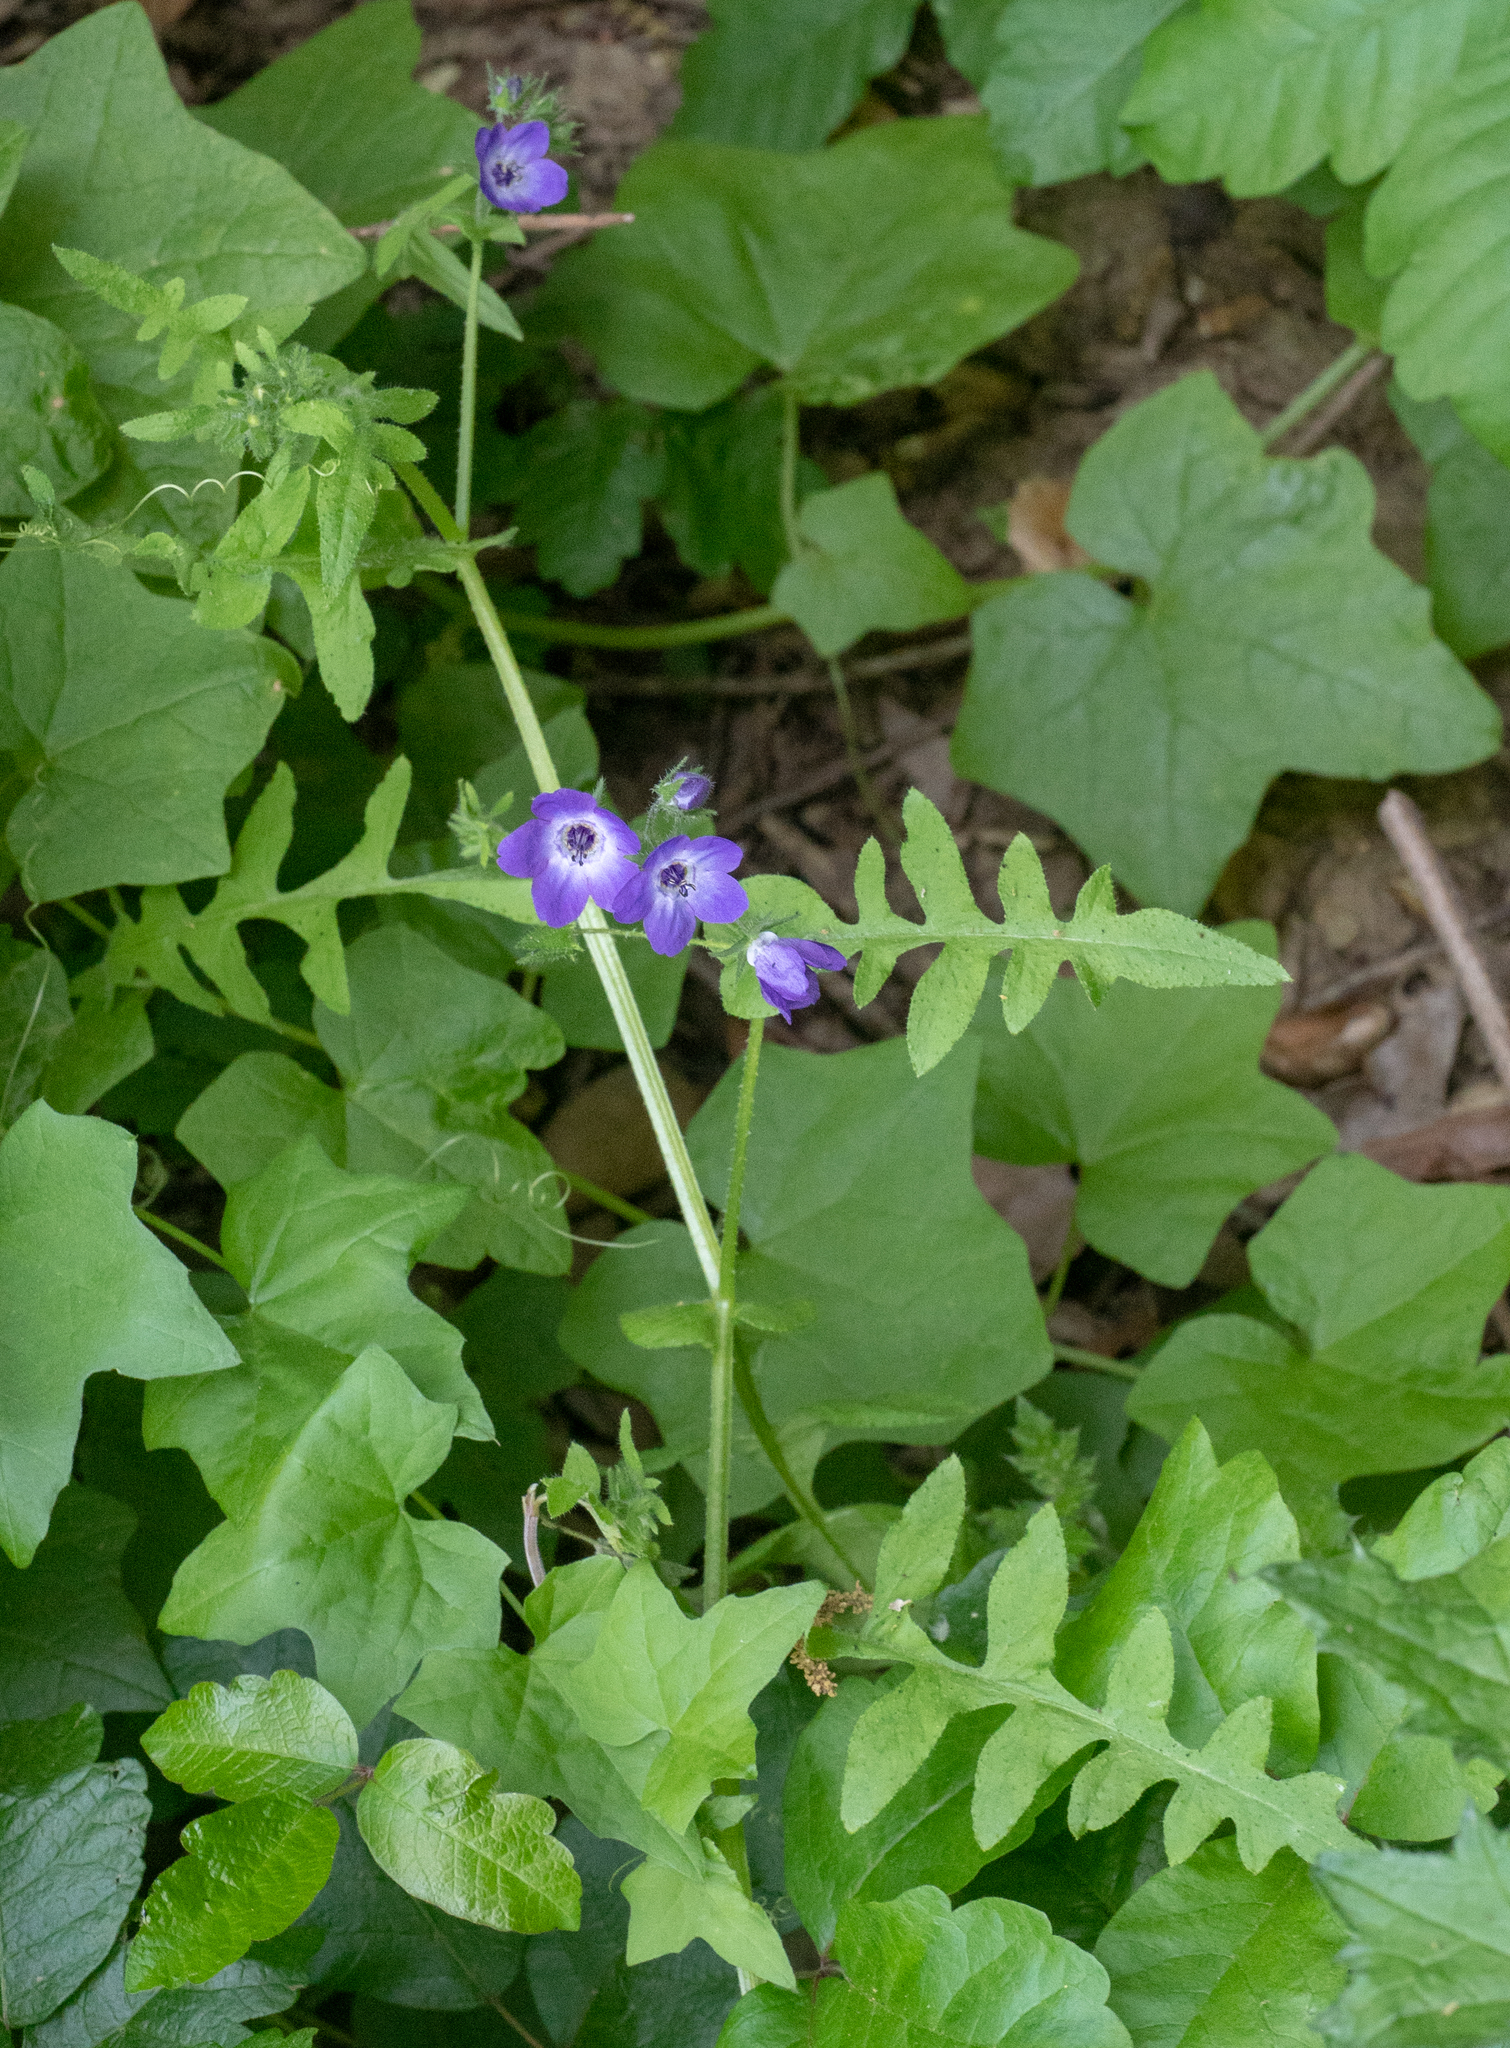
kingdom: Plantae
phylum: Tracheophyta
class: Magnoliopsida
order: Boraginales
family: Hydrophyllaceae
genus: Pholistoma
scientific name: Pholistoma auritum
